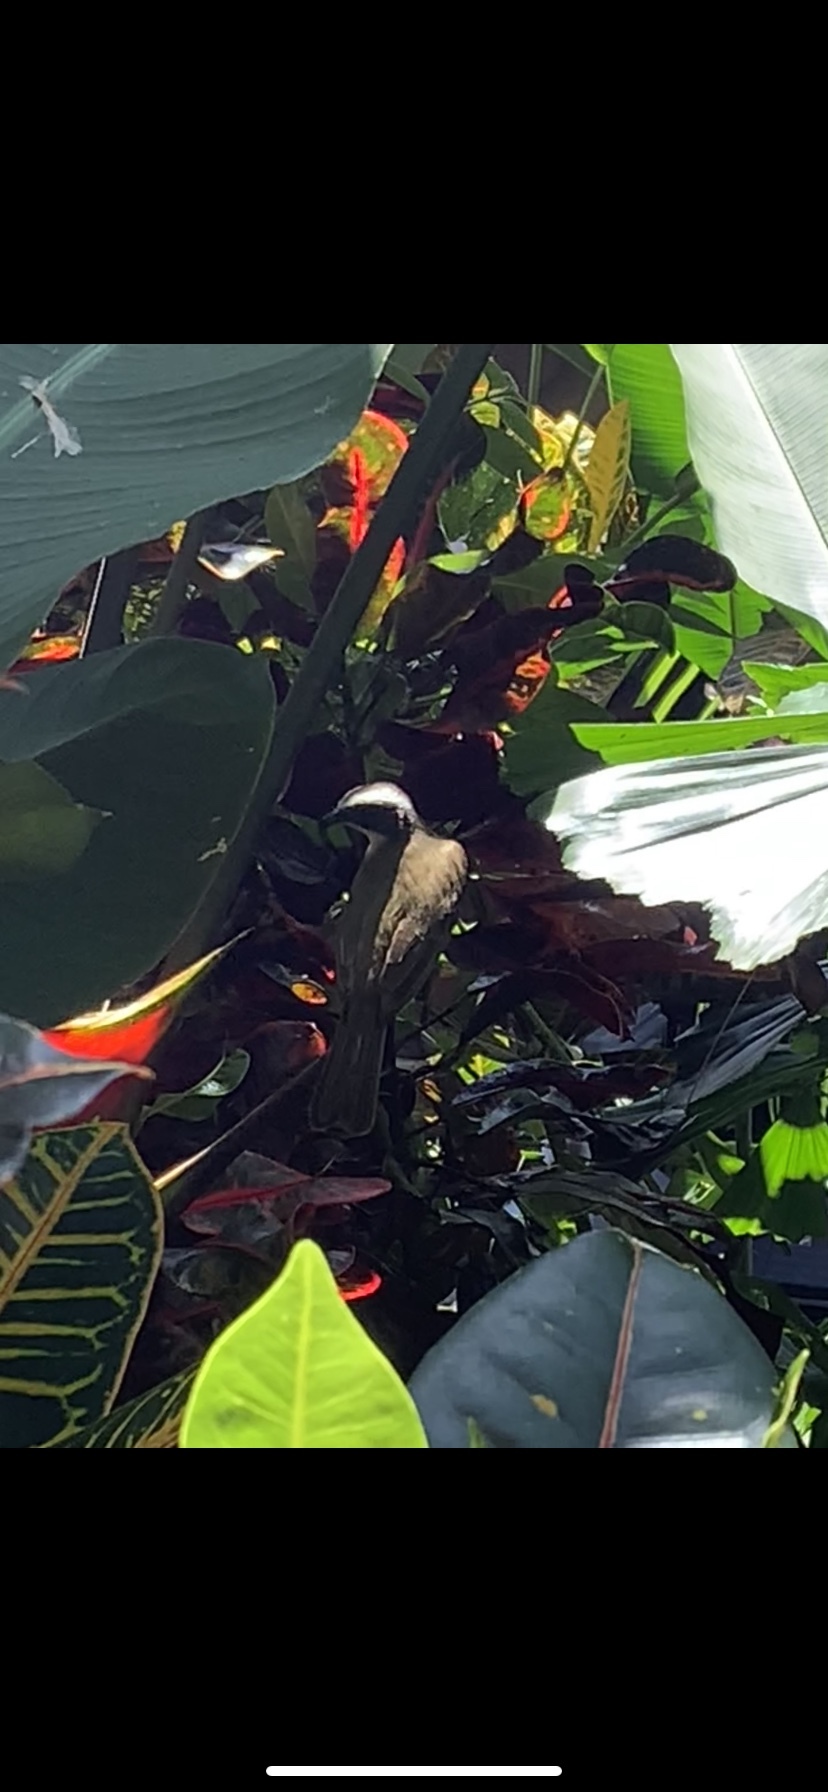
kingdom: Animalia
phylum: Chordata
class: Aves
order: Passeriformes
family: Tyrannidae
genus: Myiozetetes
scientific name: Myiozetetes similis
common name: Social flycatcher
